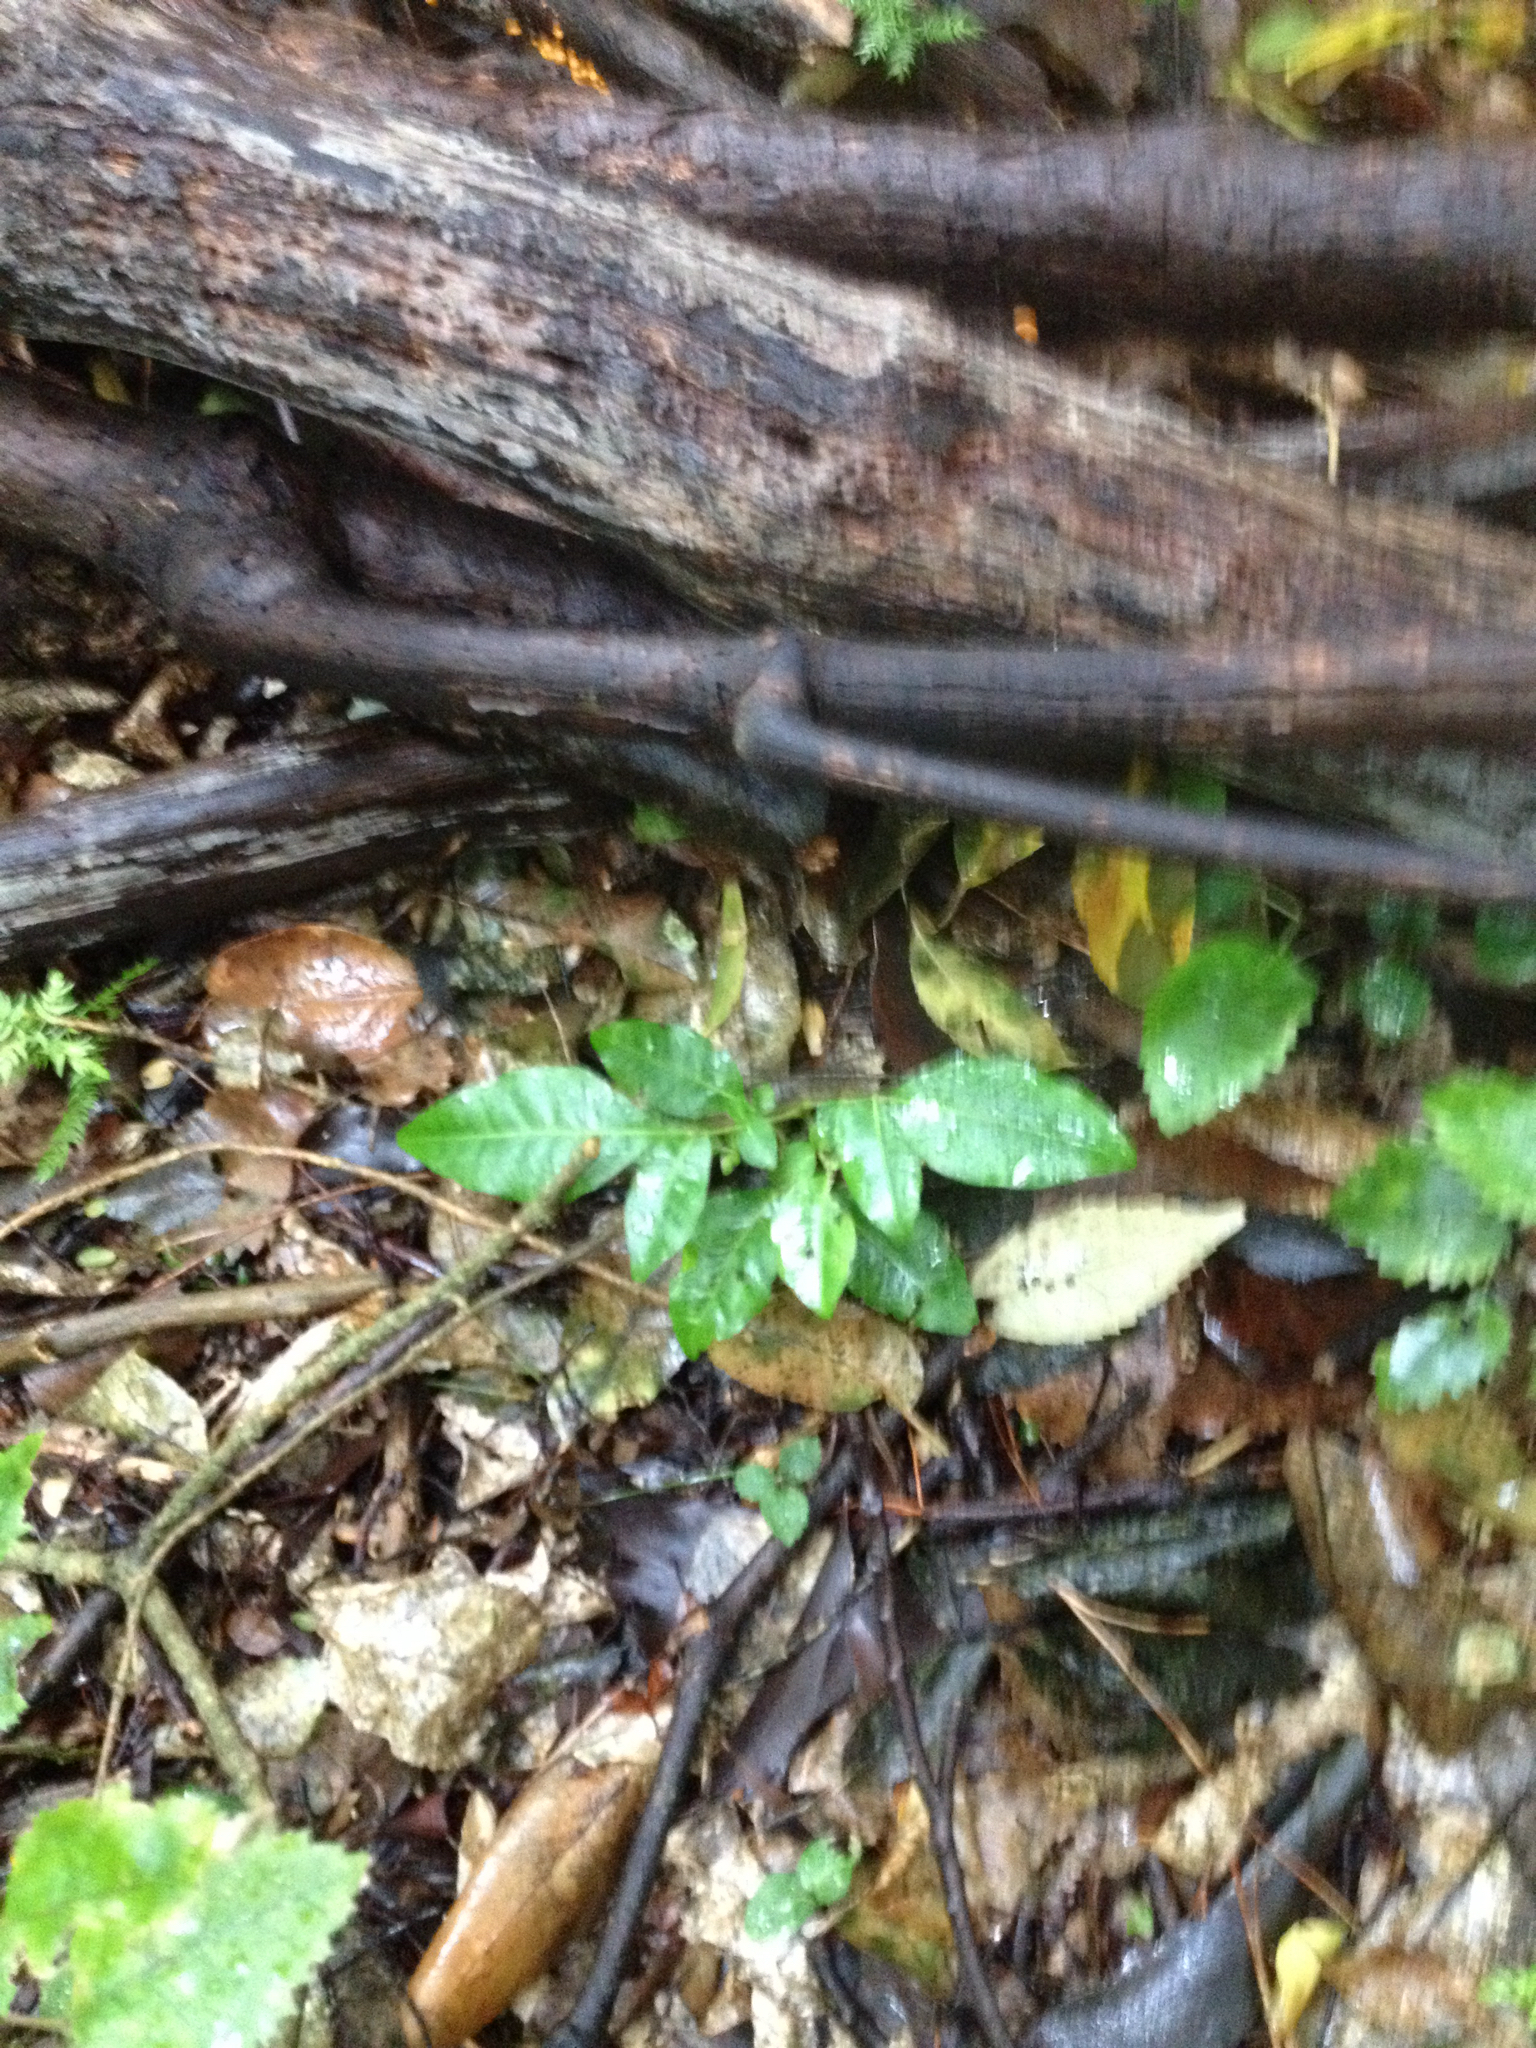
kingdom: Plantae
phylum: Tracheophyta
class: Magnoliopsida
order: Sapindales
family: Meliaceae
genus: Didymocheton
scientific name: Didymocheton spectabilis
